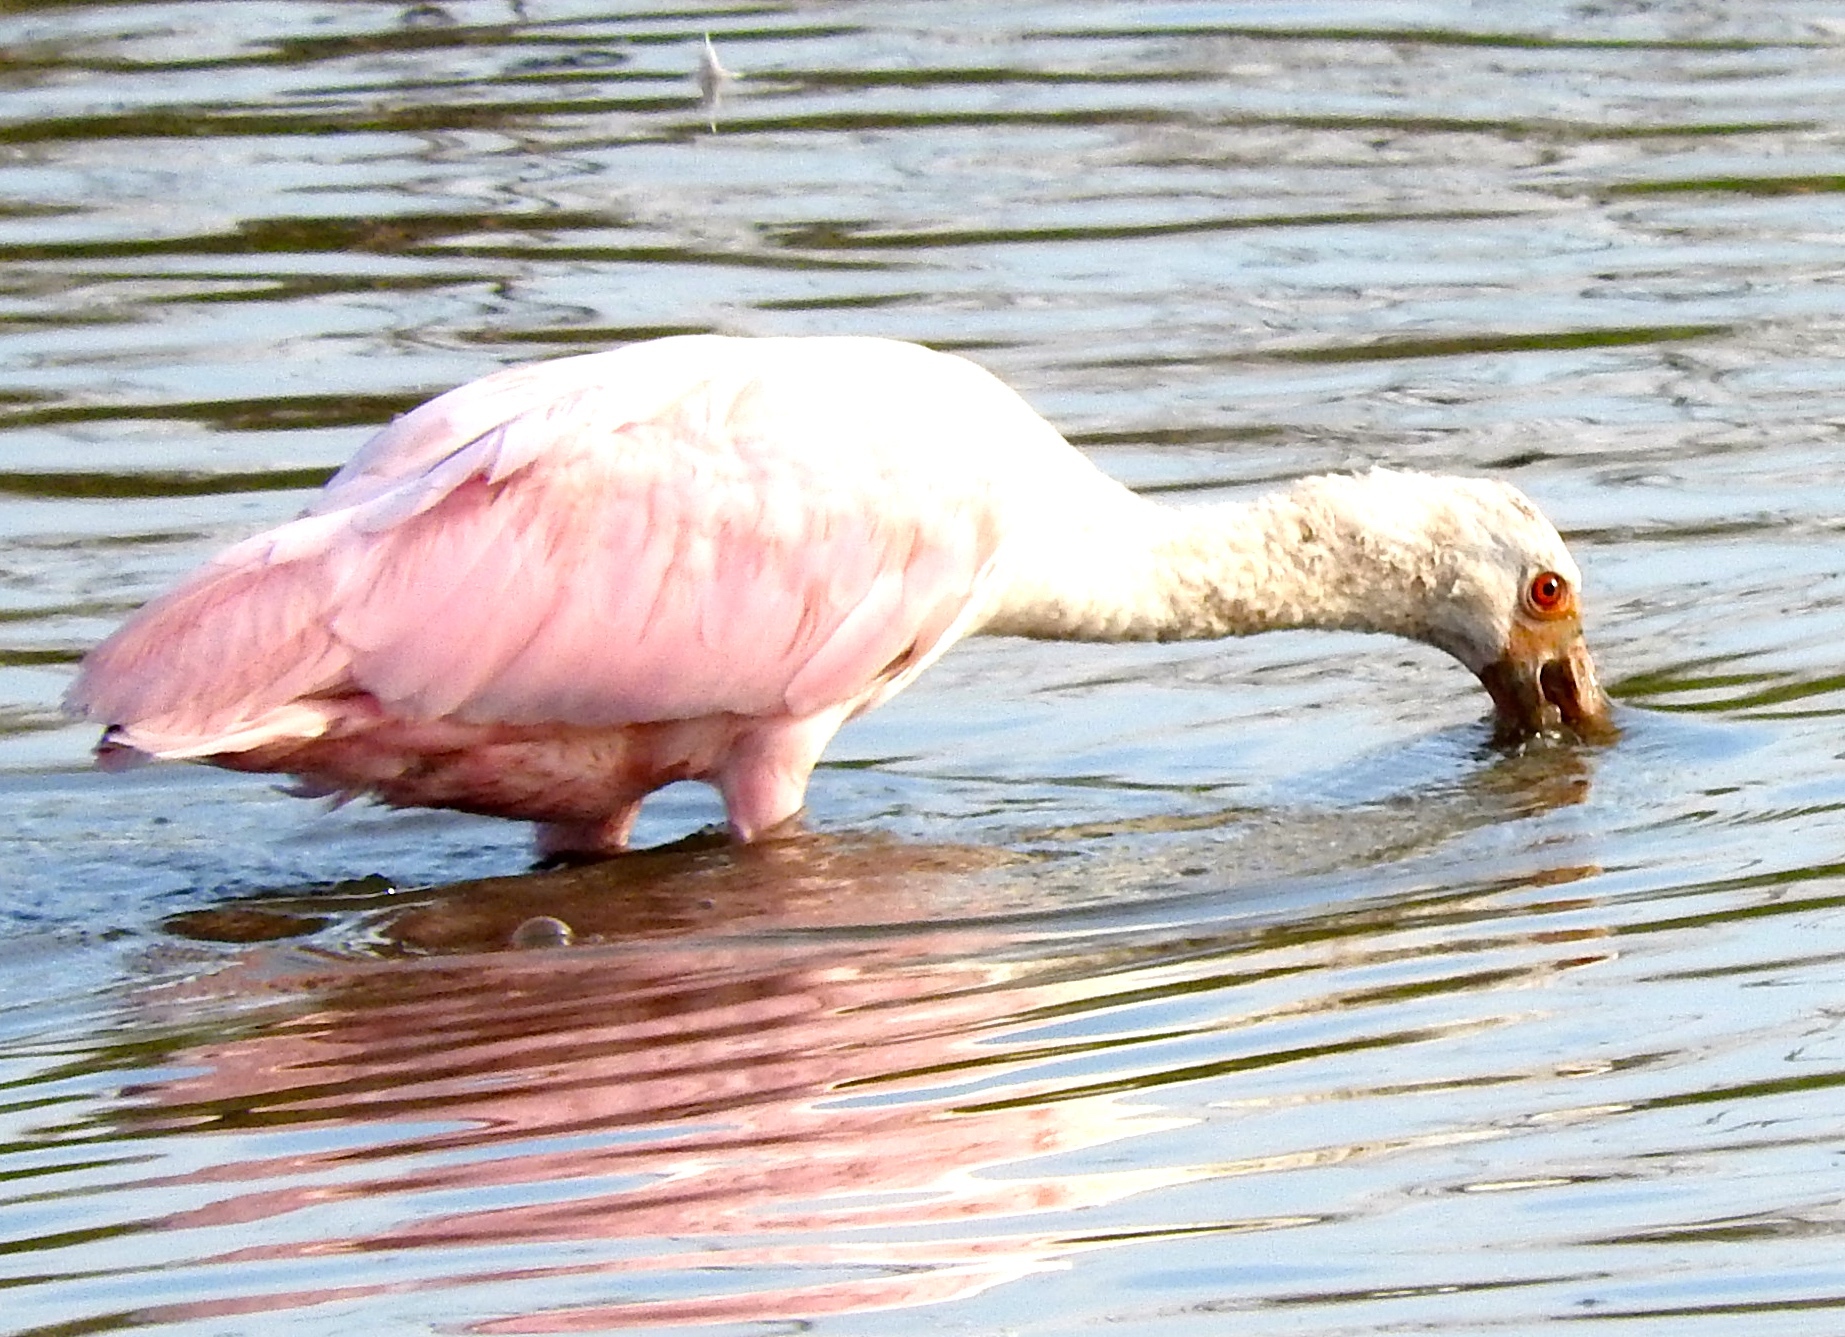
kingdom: Animalia
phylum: Chordata
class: Aves
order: Pelecaniformes
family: Threskiornithidae
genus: Platalea
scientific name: Platalea ajaja
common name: Roseate spoonbill
